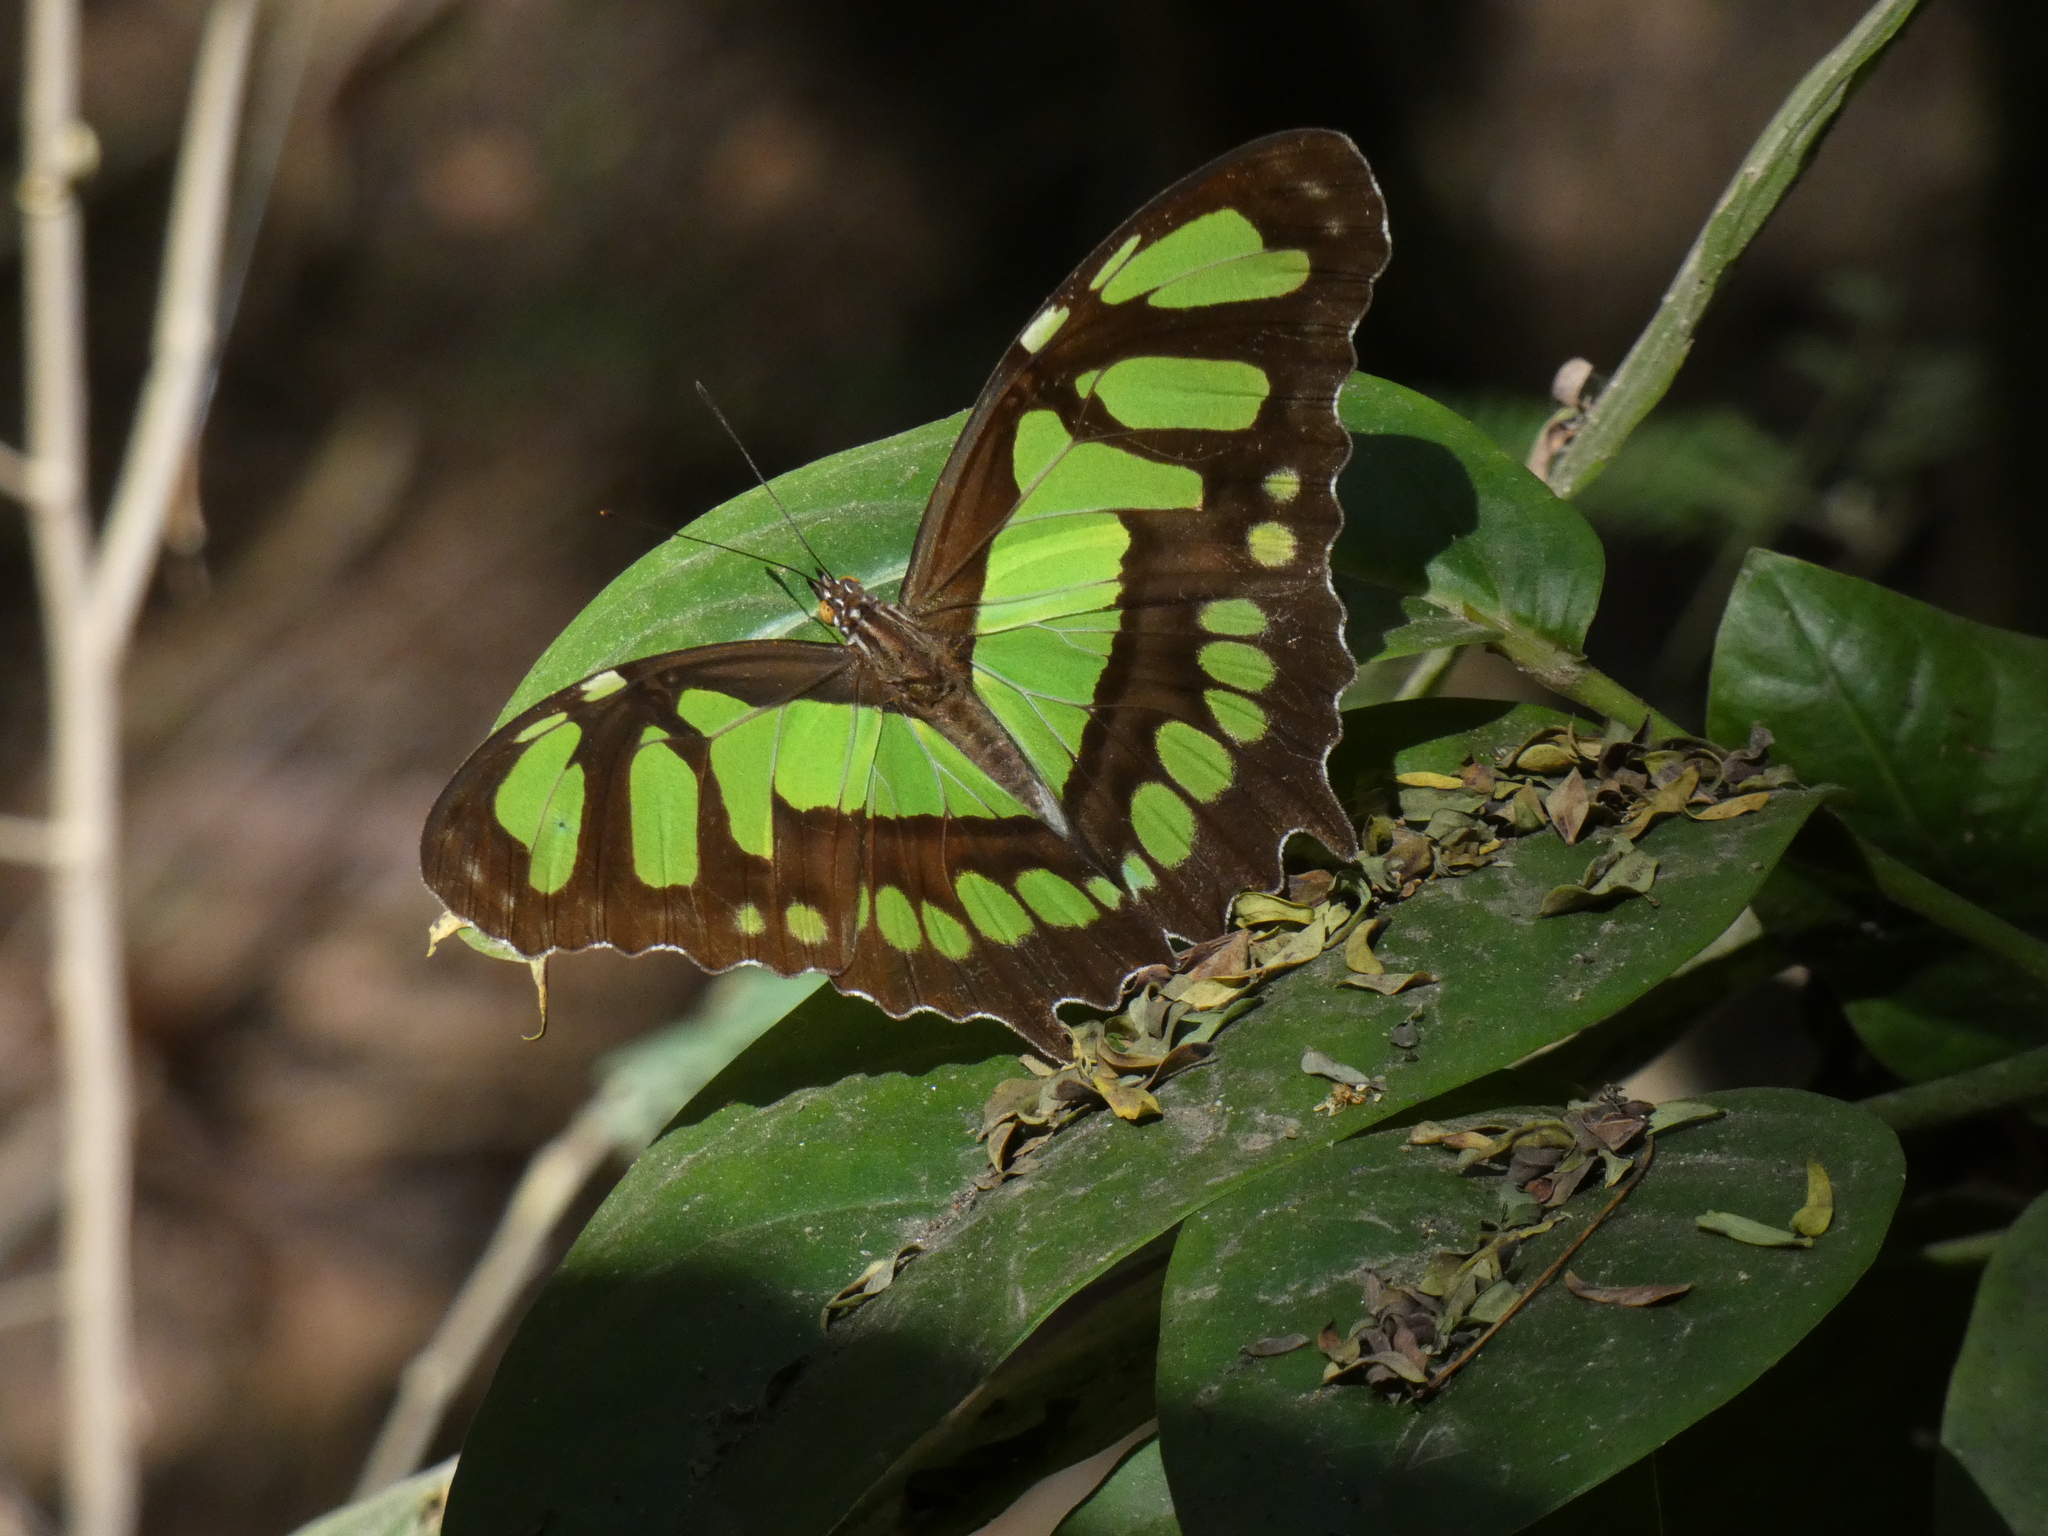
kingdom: Animalia
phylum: Arthropoda
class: Insecta
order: Lepidoptera
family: Nymphalidae
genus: Siproeta
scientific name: Siproeta stelenes
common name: Malachite
